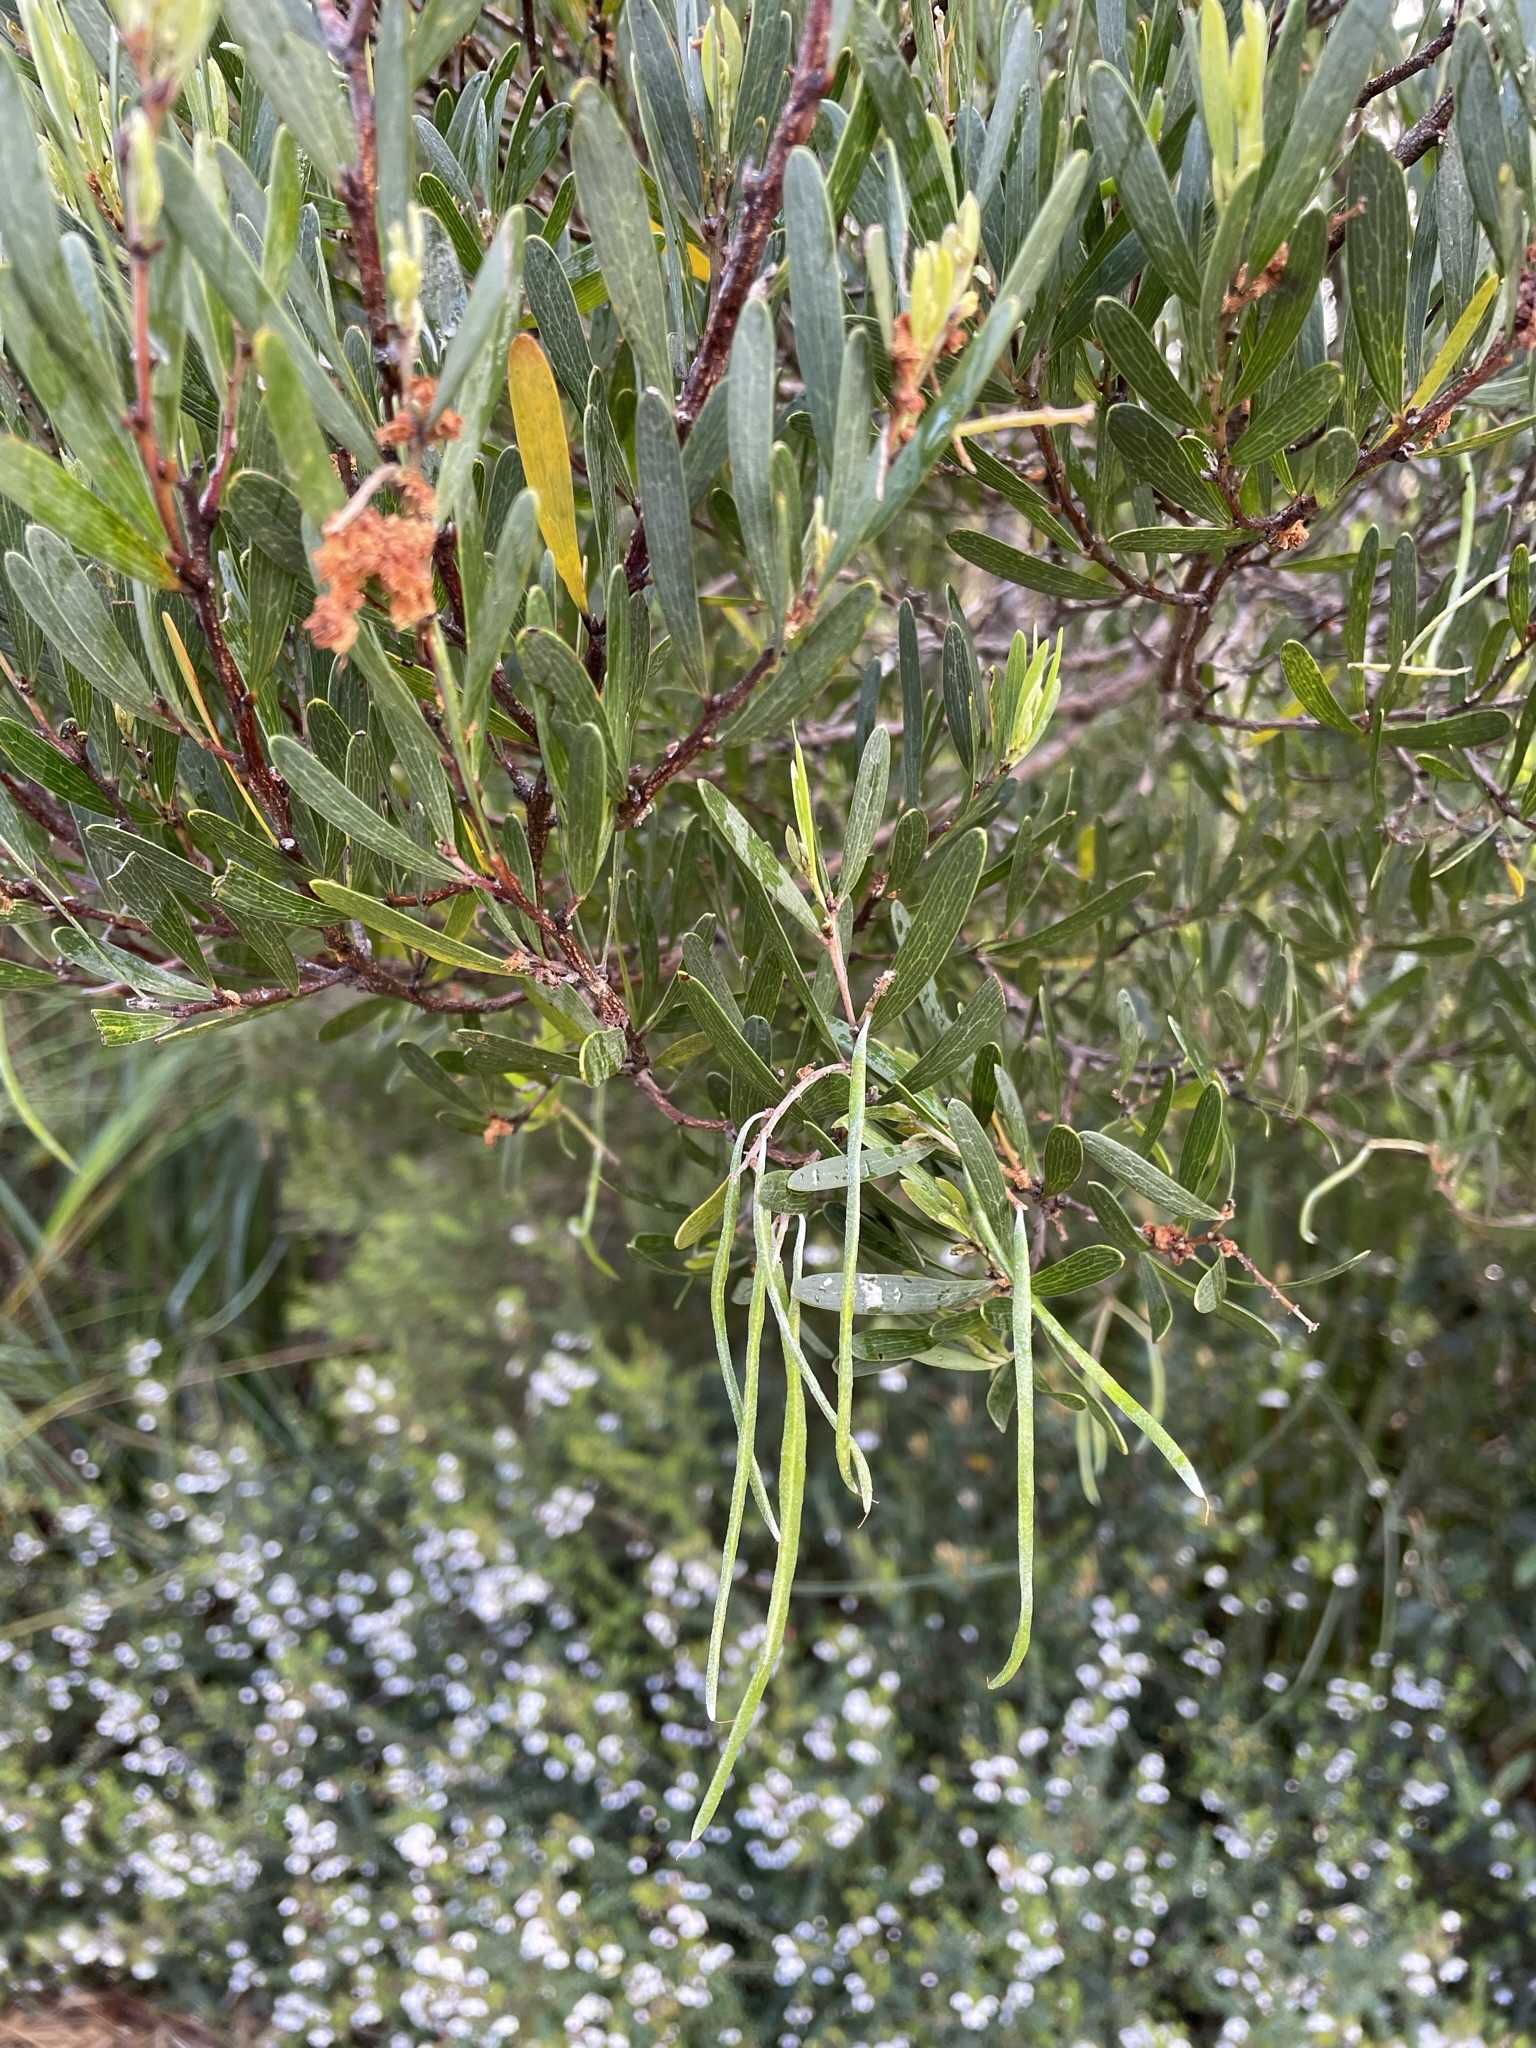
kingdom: Plantae
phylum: Tracheophyta
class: Magnoliopsida
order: Fabales
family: Fabaceae
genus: Acacia
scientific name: Acacia mucronata
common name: Variable sallow wattle
